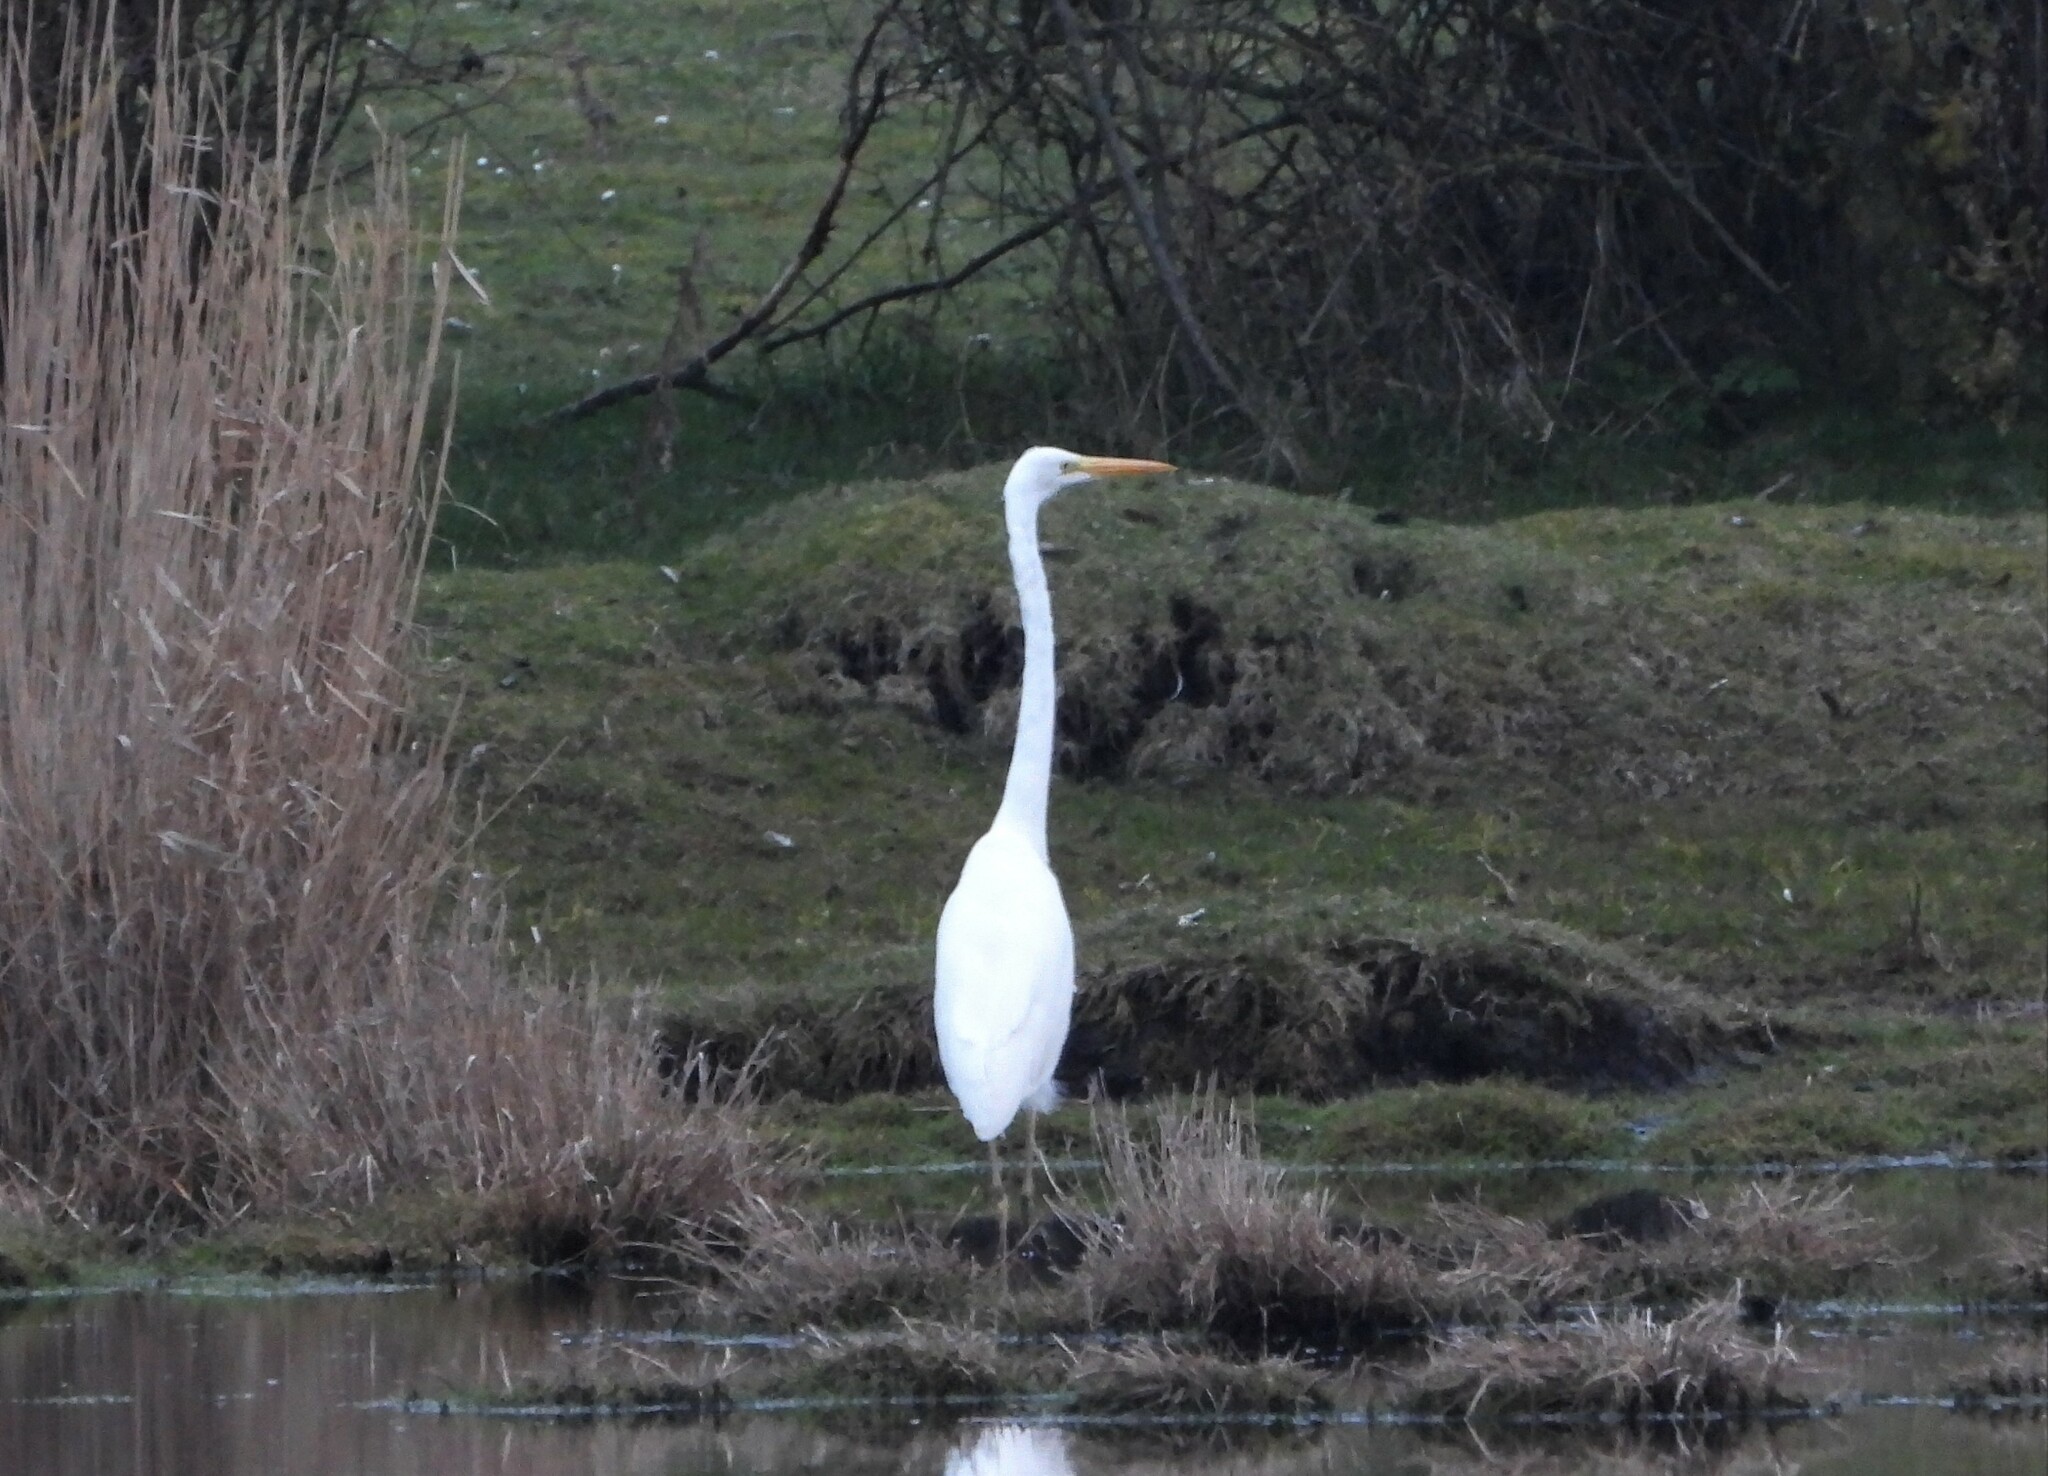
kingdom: Animalia
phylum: Chordata
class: Aves
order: Pelecaniformes
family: Ardeidae
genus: Ardea
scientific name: Ardea alba
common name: Great egret
